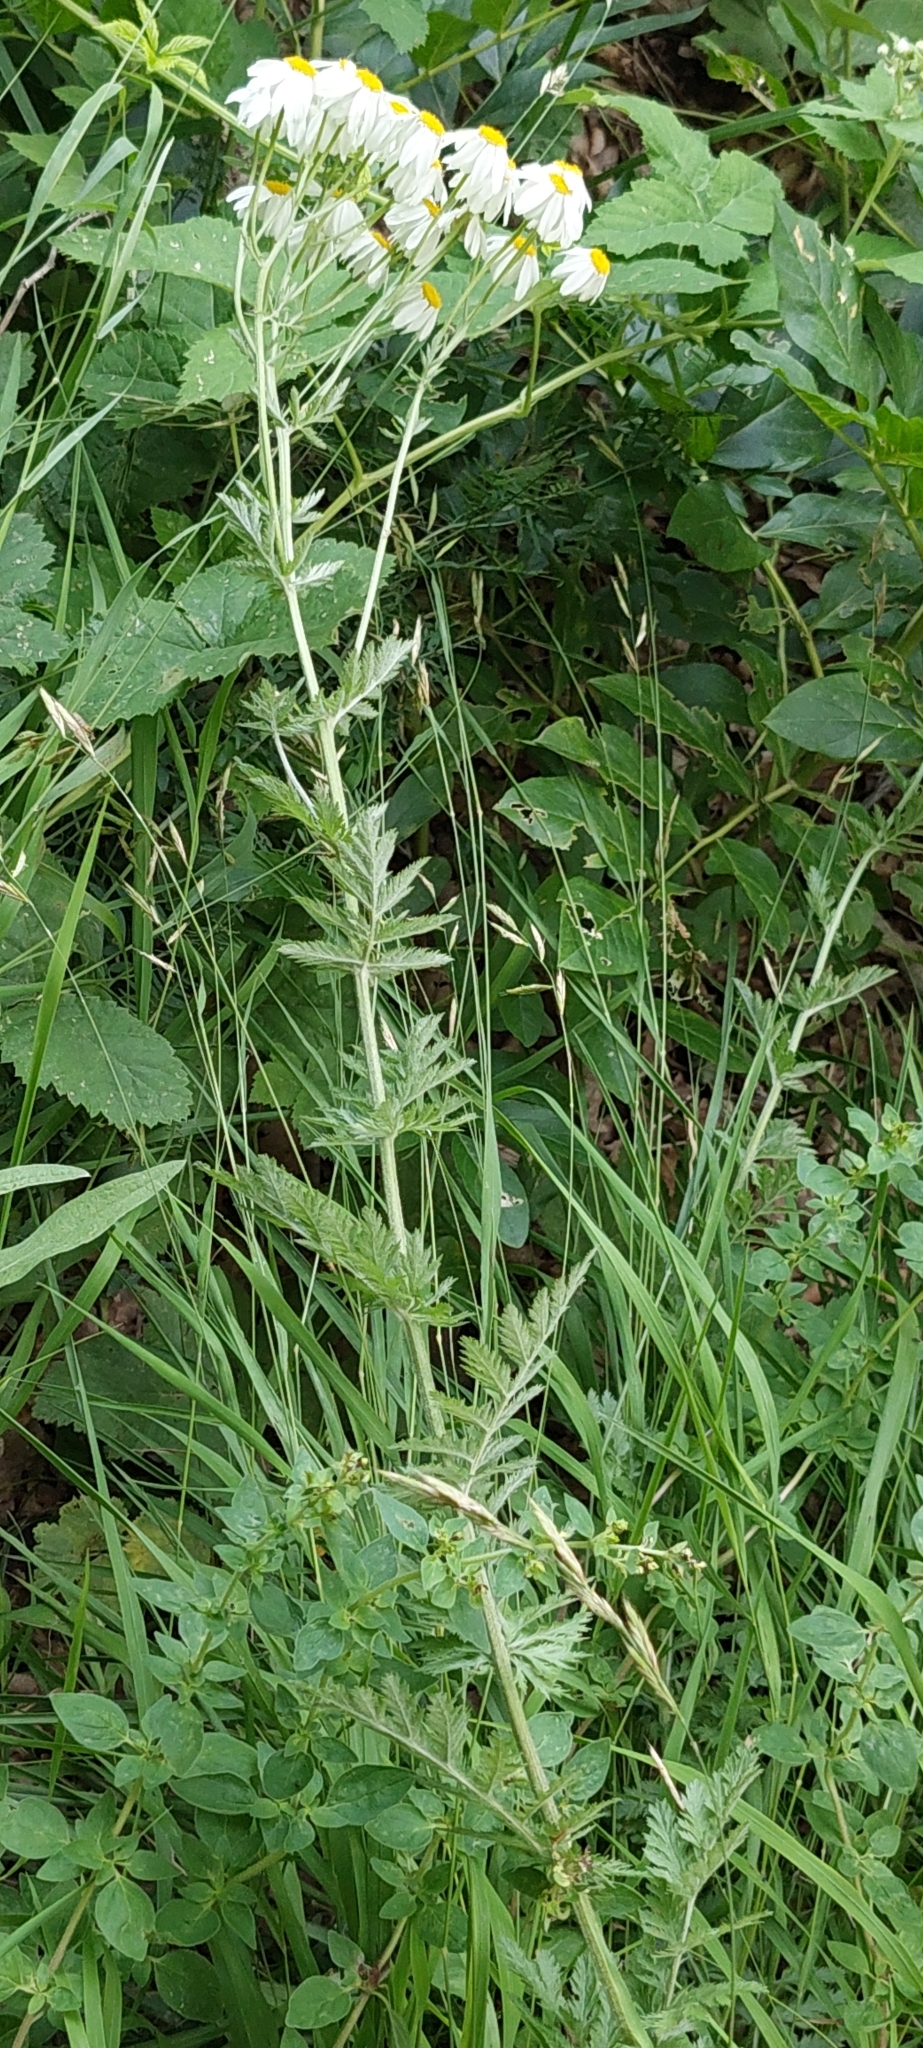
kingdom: Plantae
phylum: Tracheophyta
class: Magnoliopsida
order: Asterales
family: Asteraceae
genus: Tanacetum
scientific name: Tanacetum corymbosum
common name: Scentless feverfew
